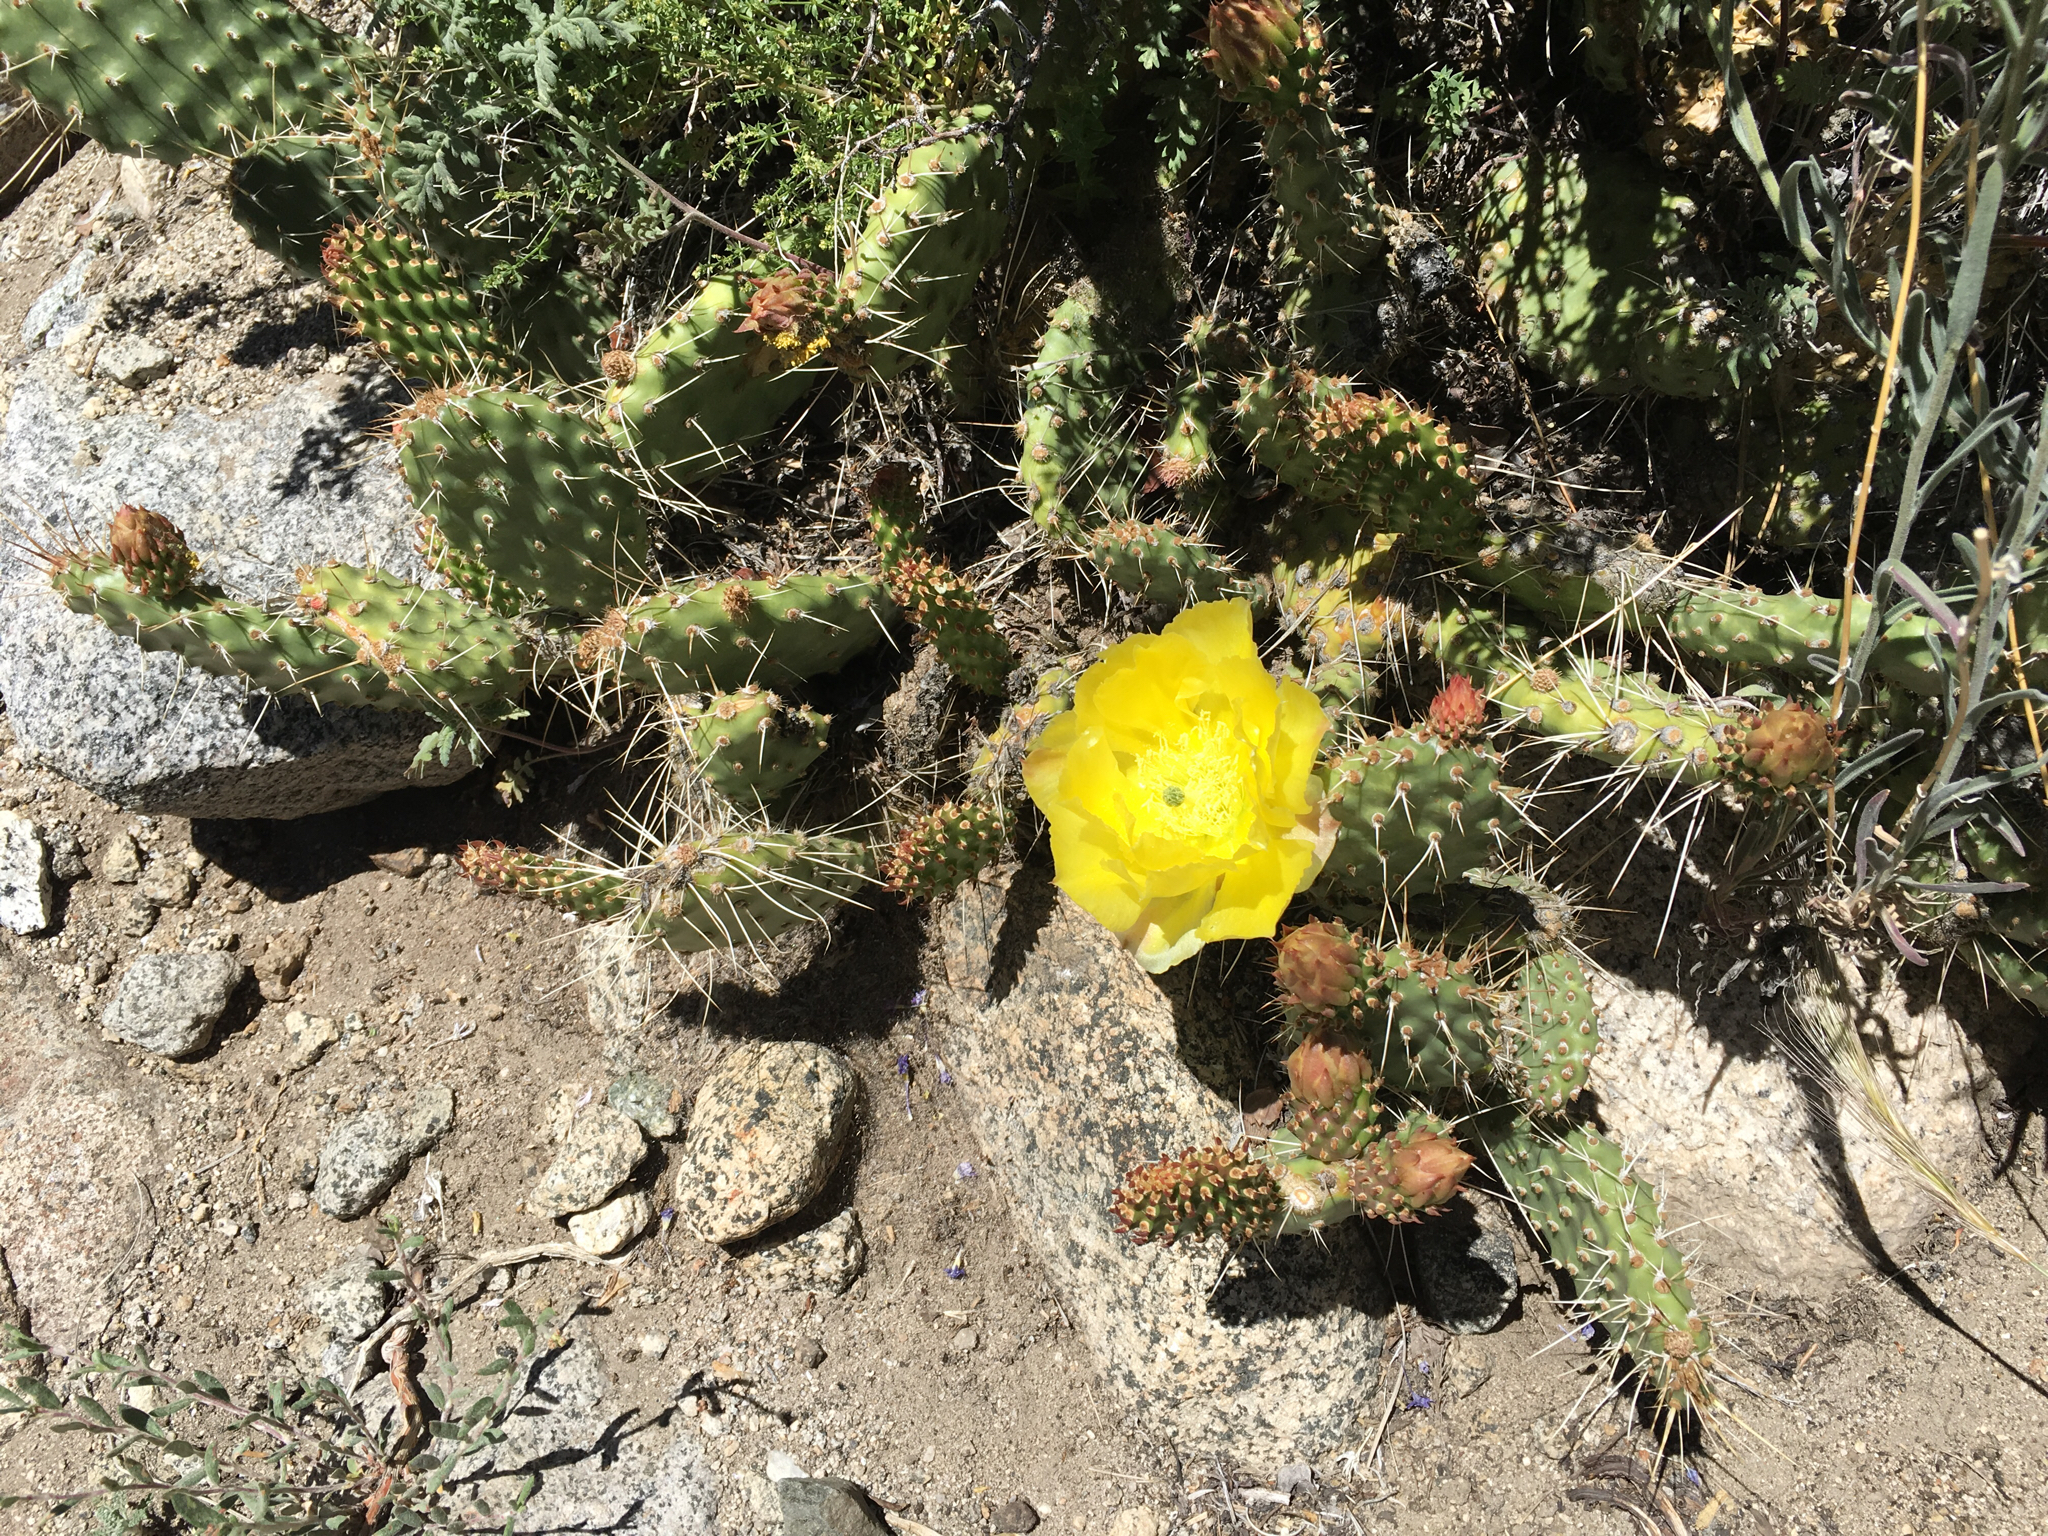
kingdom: Plantae
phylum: Tracheophyta
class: Magnoliopsida
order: Caryophyllales
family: Cactaceae
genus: Opuntia
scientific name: Opuntia polyacantha
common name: Plains prickly-pear
